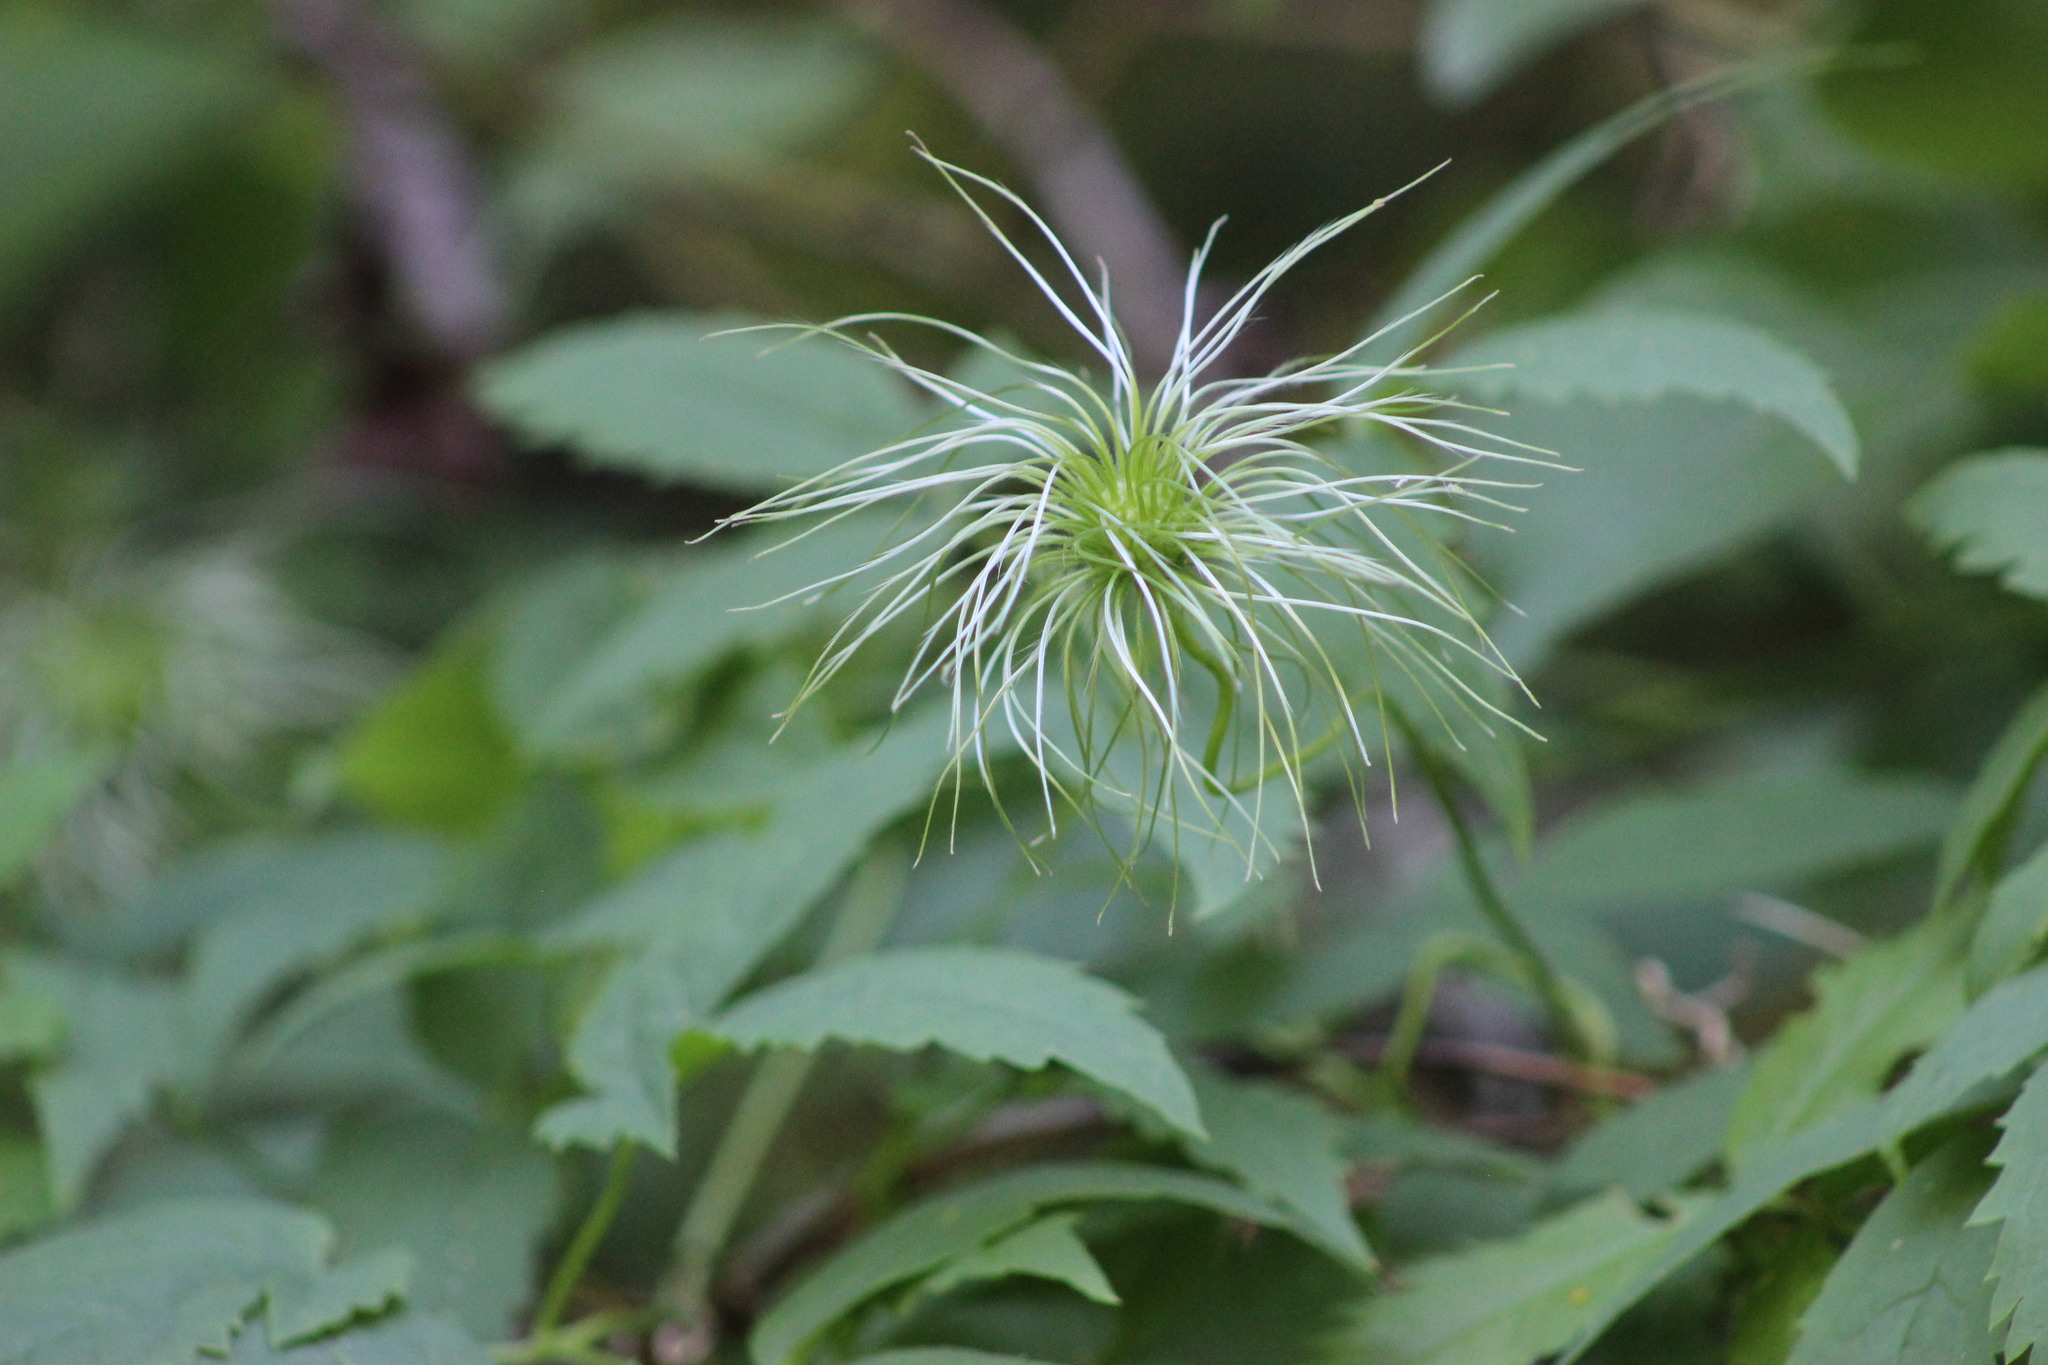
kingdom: Plantae
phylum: Tracheophyta
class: Magnoliopsida
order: Ranunculales
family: Ranunculaceae
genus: Clematis
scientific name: Clematis sibirica
